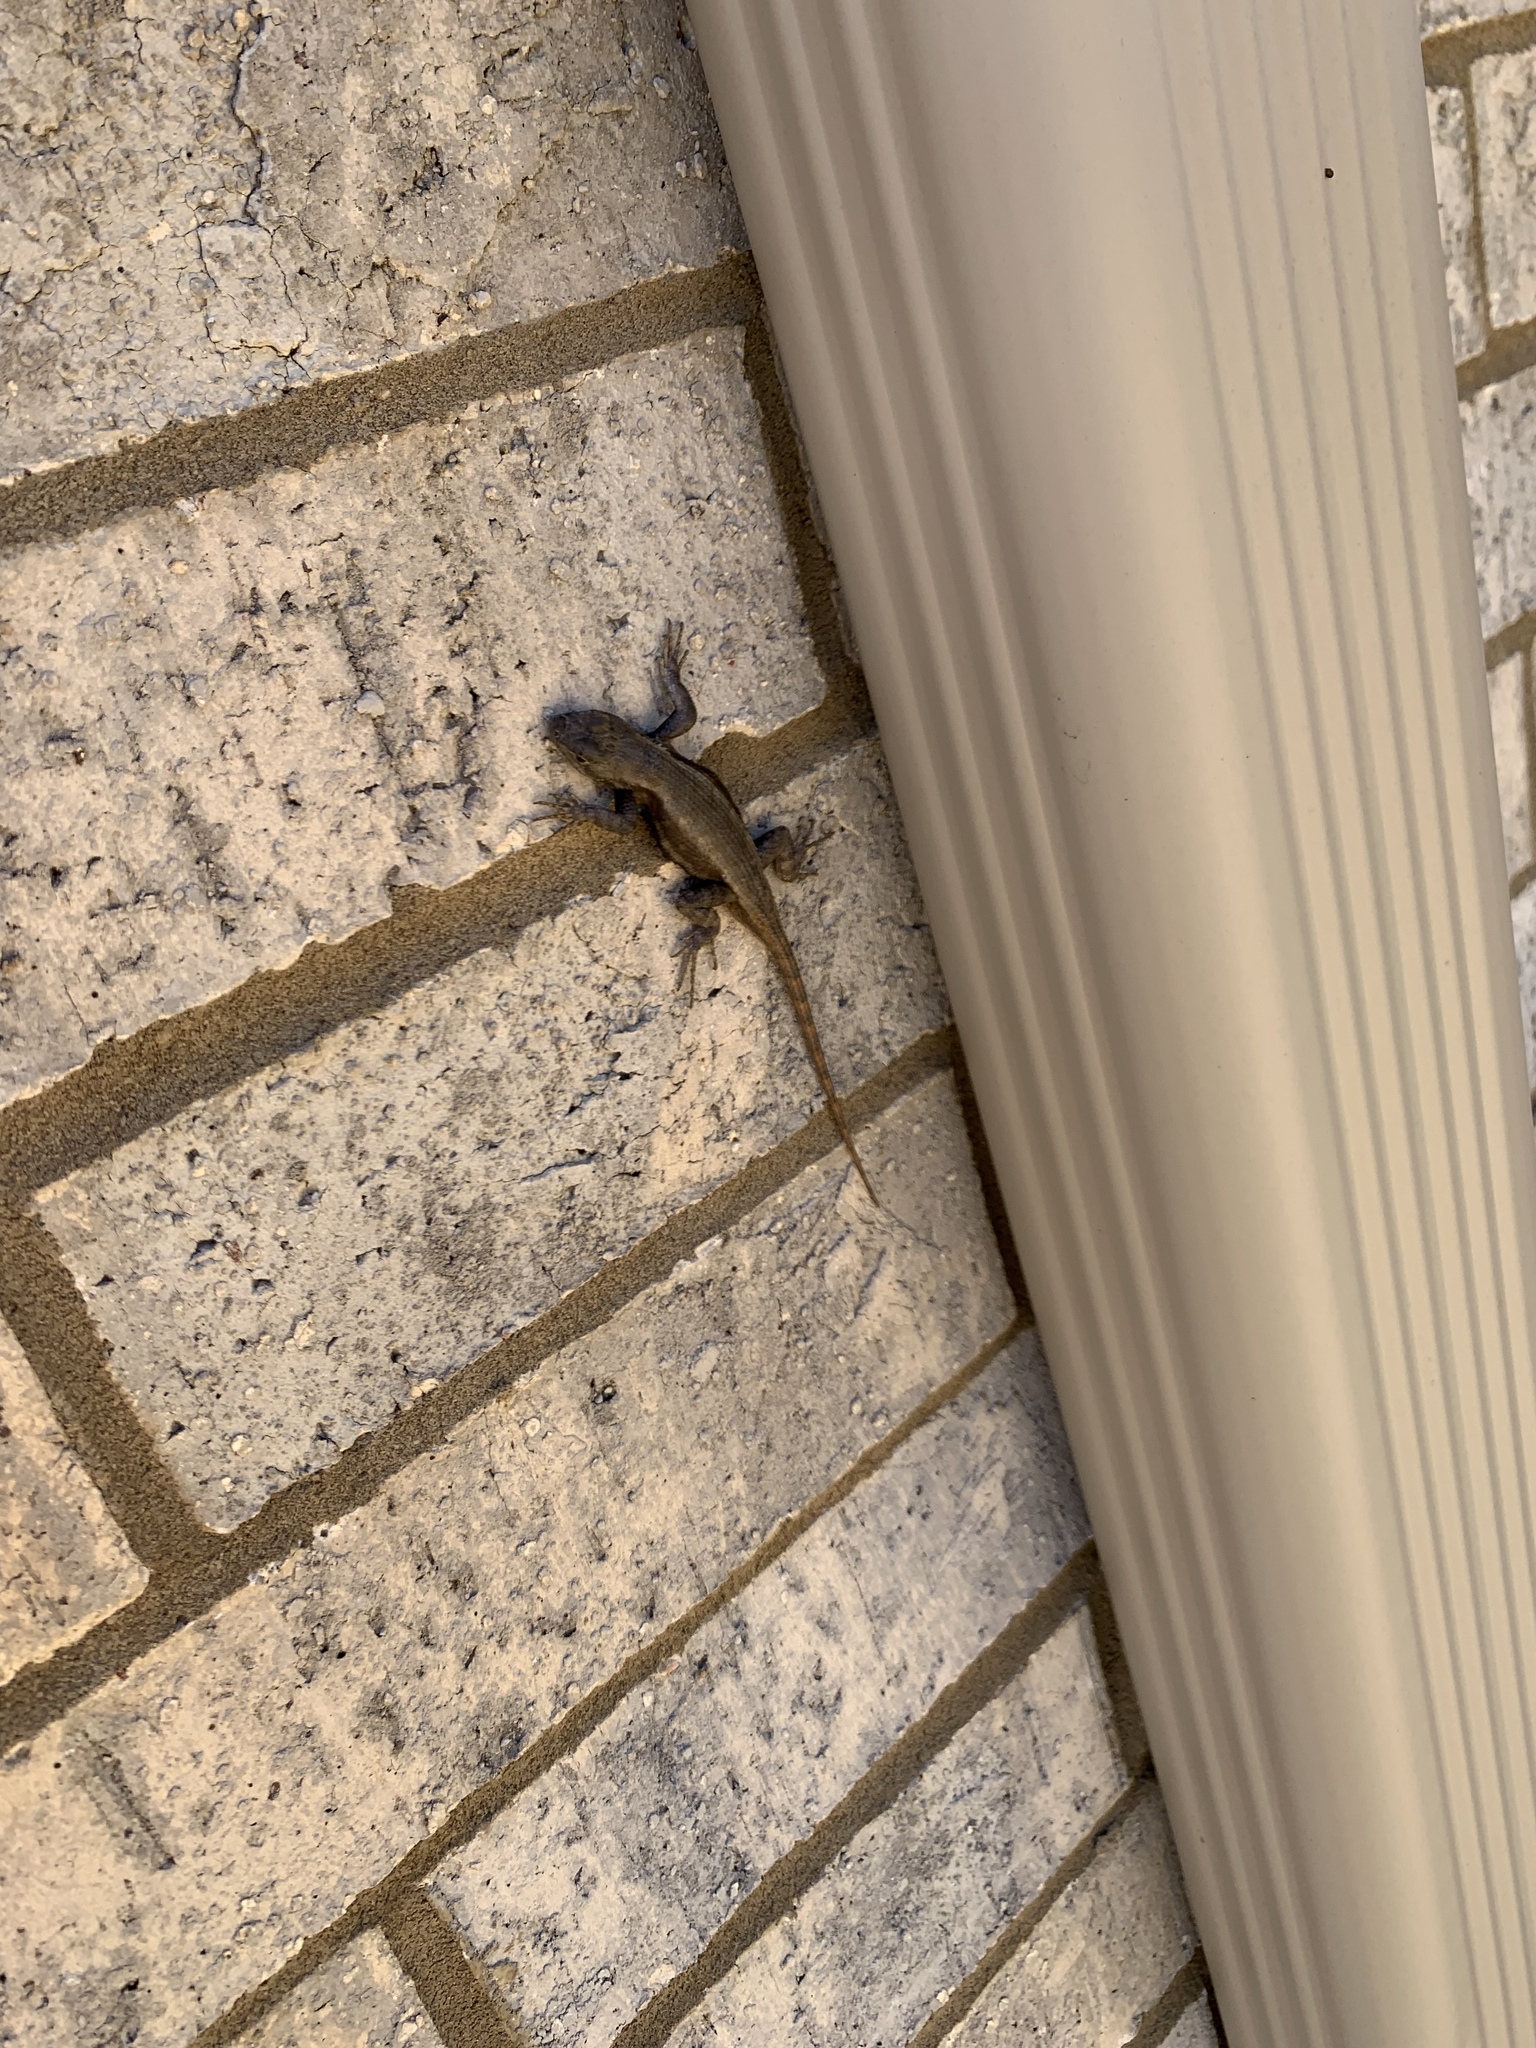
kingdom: Animalia
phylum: Chordata
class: Squamata
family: Phrynosomatidae
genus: Sceloporus
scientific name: Sceloporus consobrinus
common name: Southern prairie lizard
